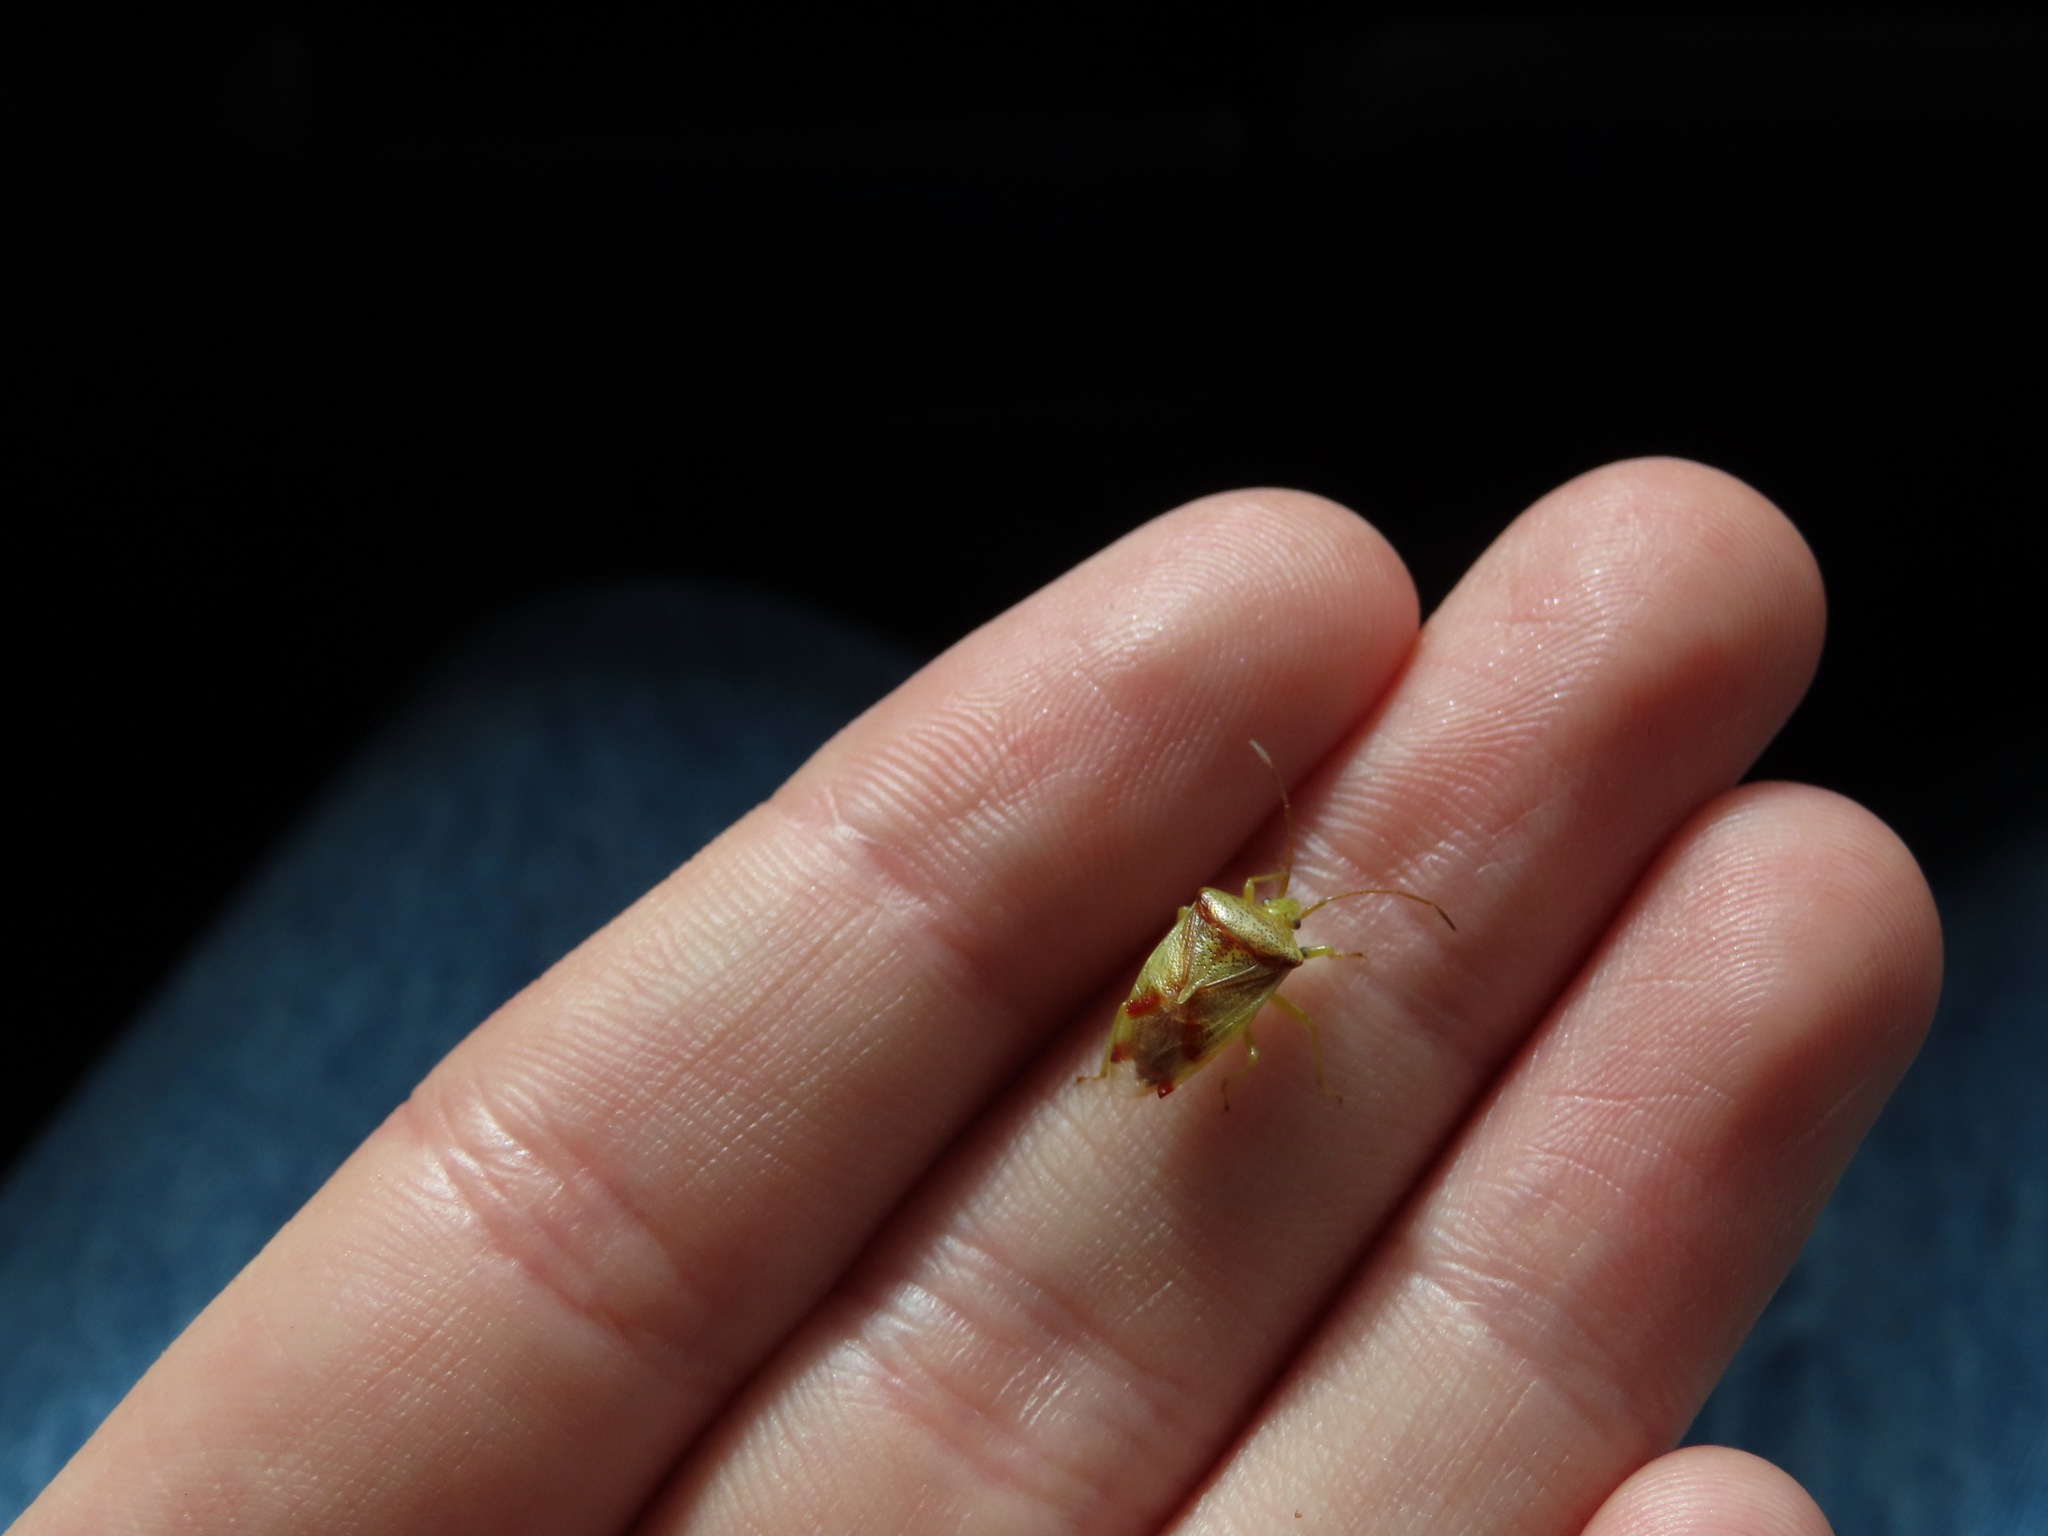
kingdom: Animalia
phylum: Arthropoda
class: Insecta
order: Hemiptera
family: Acanthosomatidae
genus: Elasmostethus
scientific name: Elasmostethus cruciatus
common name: Red-cross shield bug
